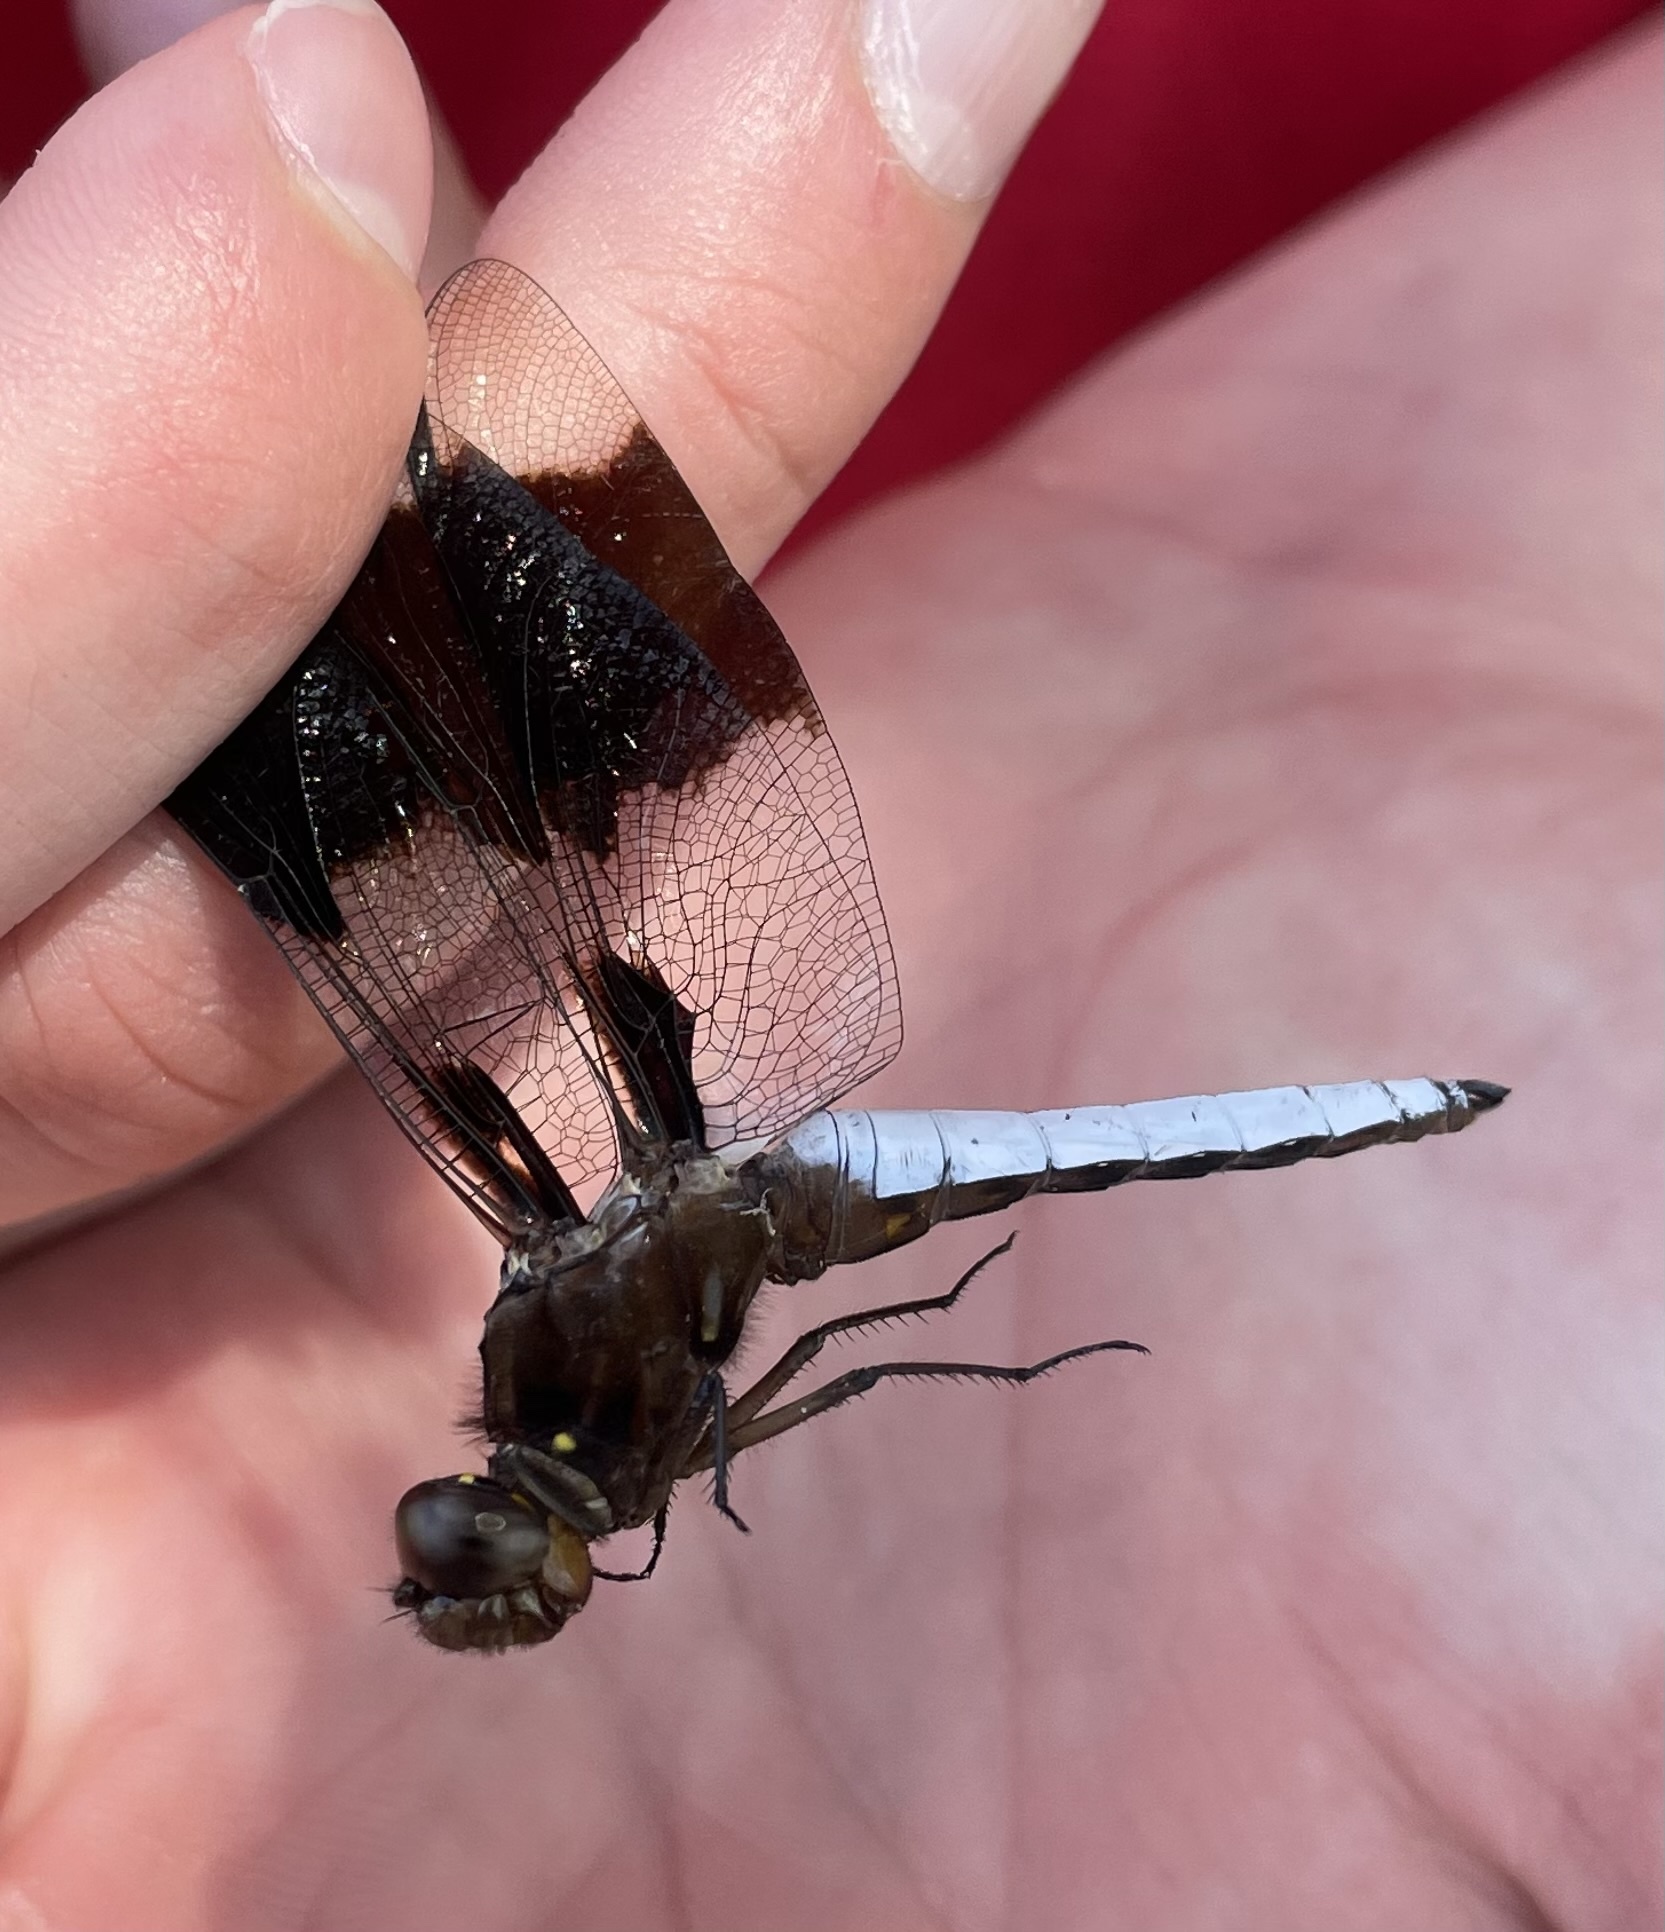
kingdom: Animalia
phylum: Arthropoda
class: Insecta
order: Odonata
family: Libellulidae
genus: Plathemis
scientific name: Plathemis lydia
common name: Common whitetail
